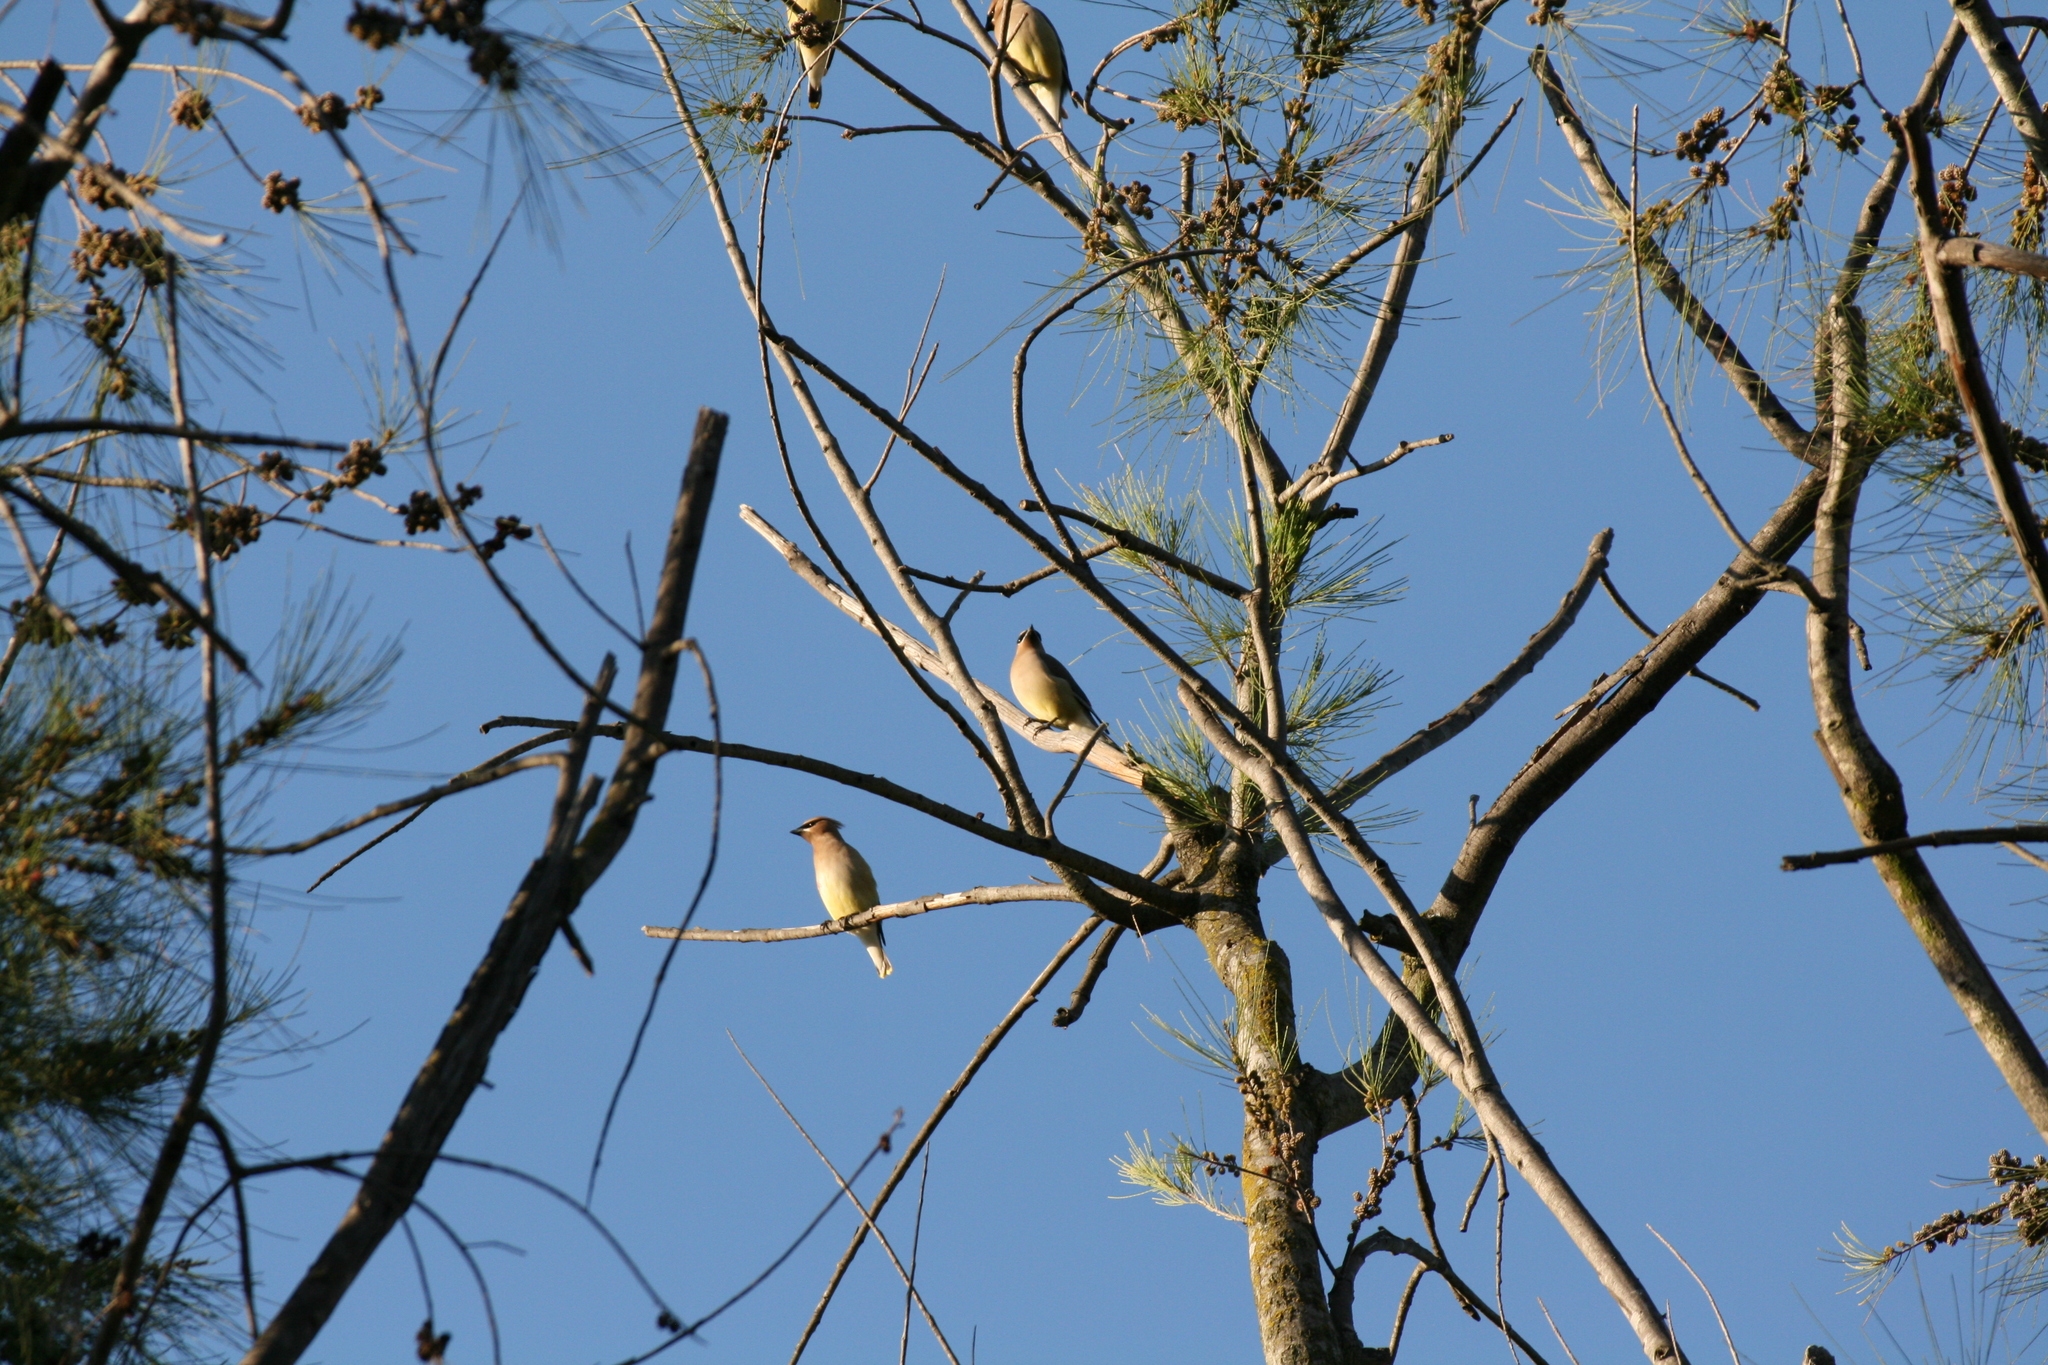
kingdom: Animalia
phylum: Chordata
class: Aves
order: Passeriformes
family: Bombycillidae
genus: Bombycilla
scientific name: Bombycilla cedrorum
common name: Cedar waxwing
